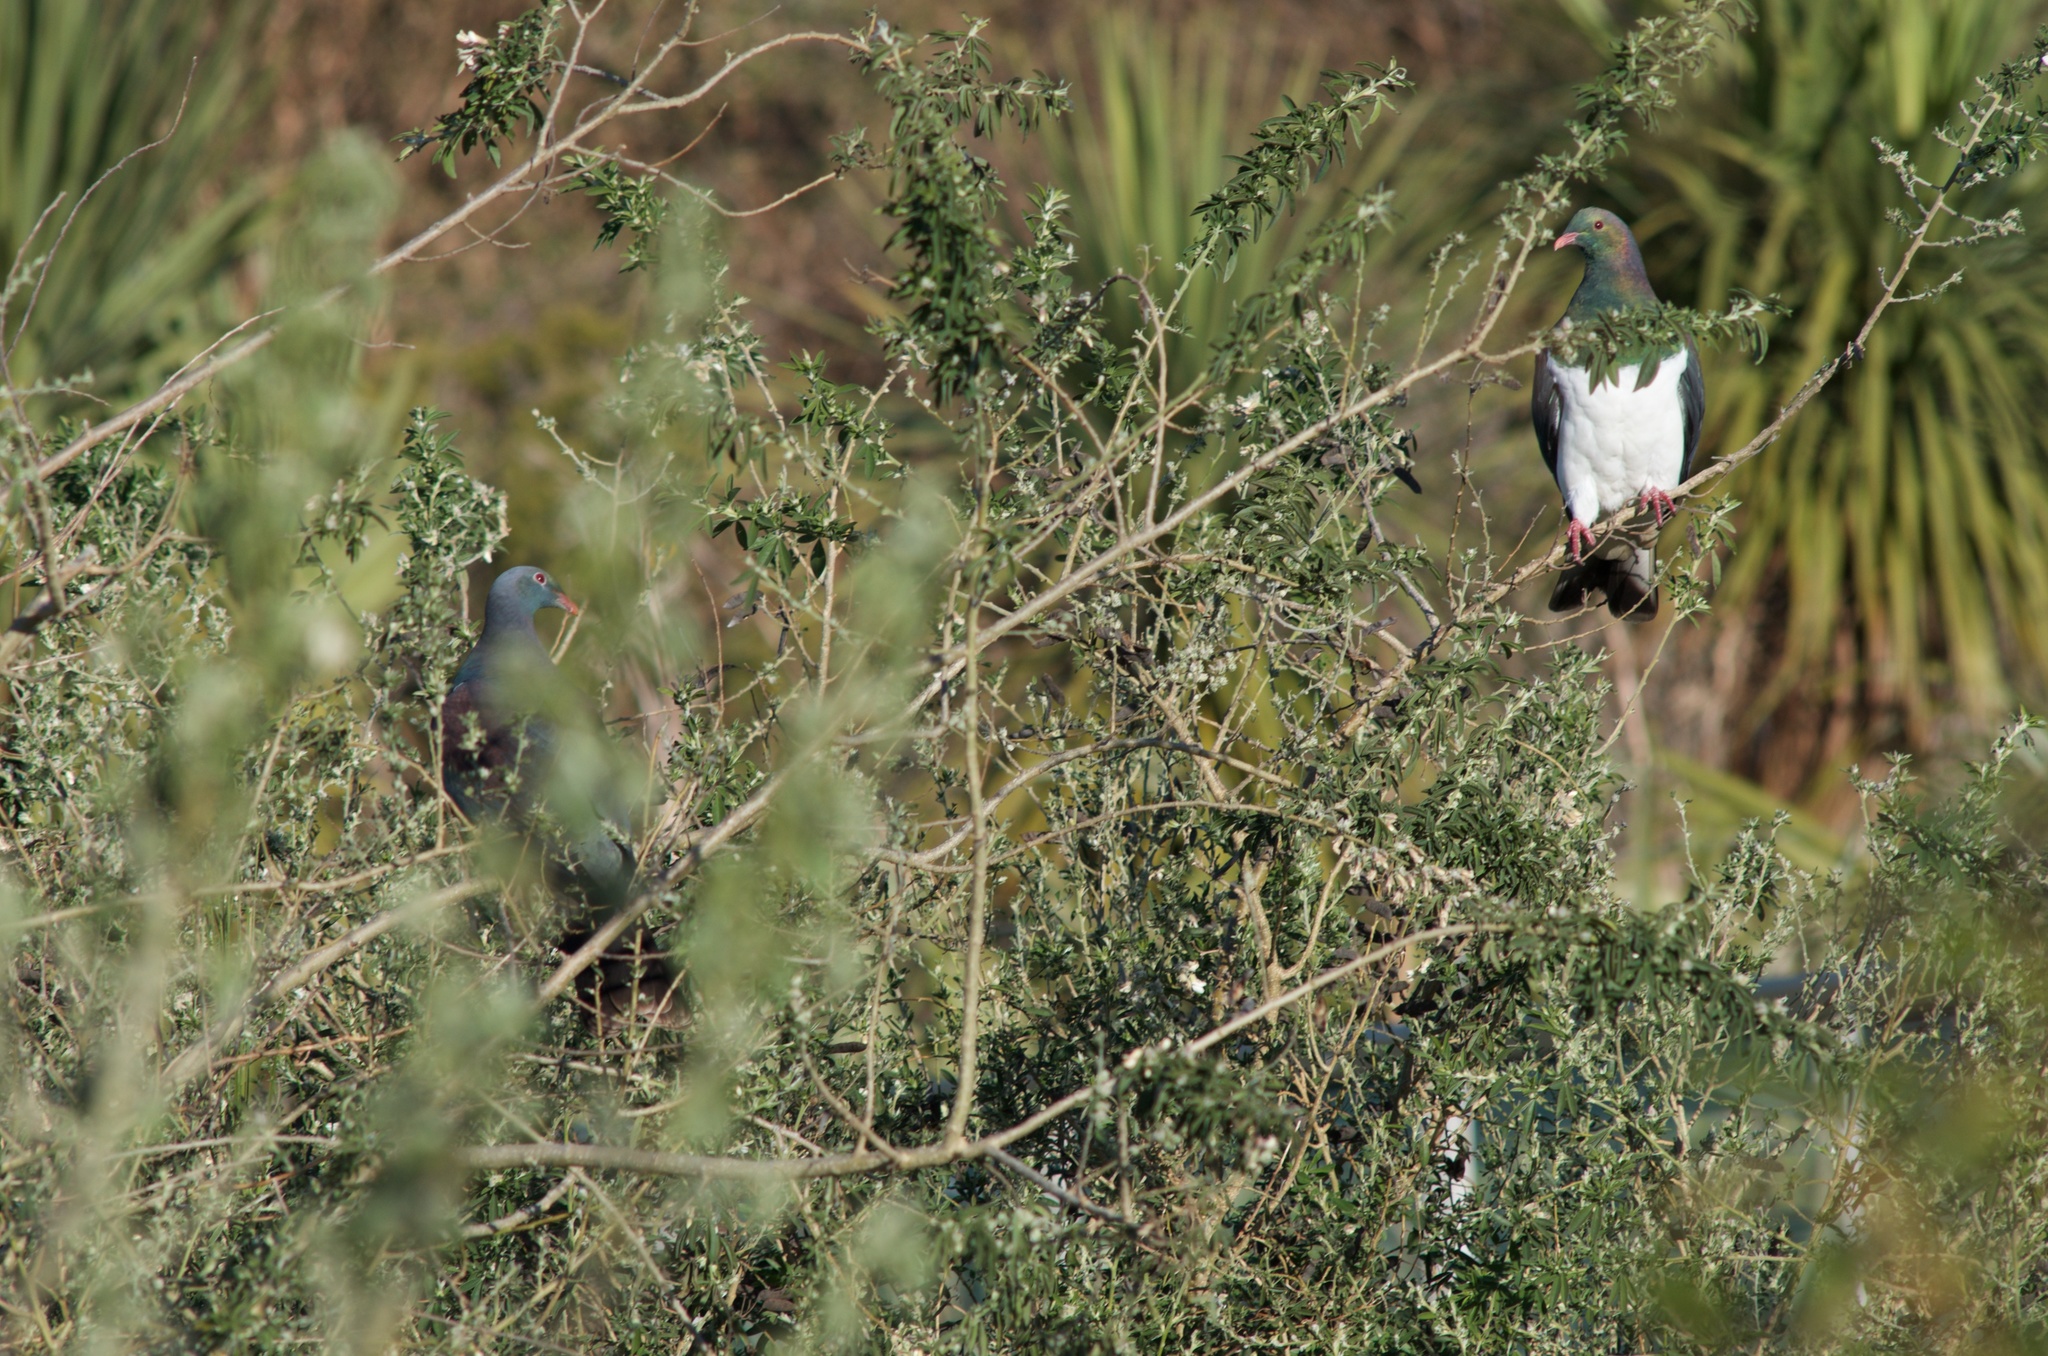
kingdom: Animalia
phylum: Chordata
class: Aves
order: Columbiformes
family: Columbidae
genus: Hemiphaga
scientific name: Hemiphaga novaeseelandiae
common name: New zealand pigeon
